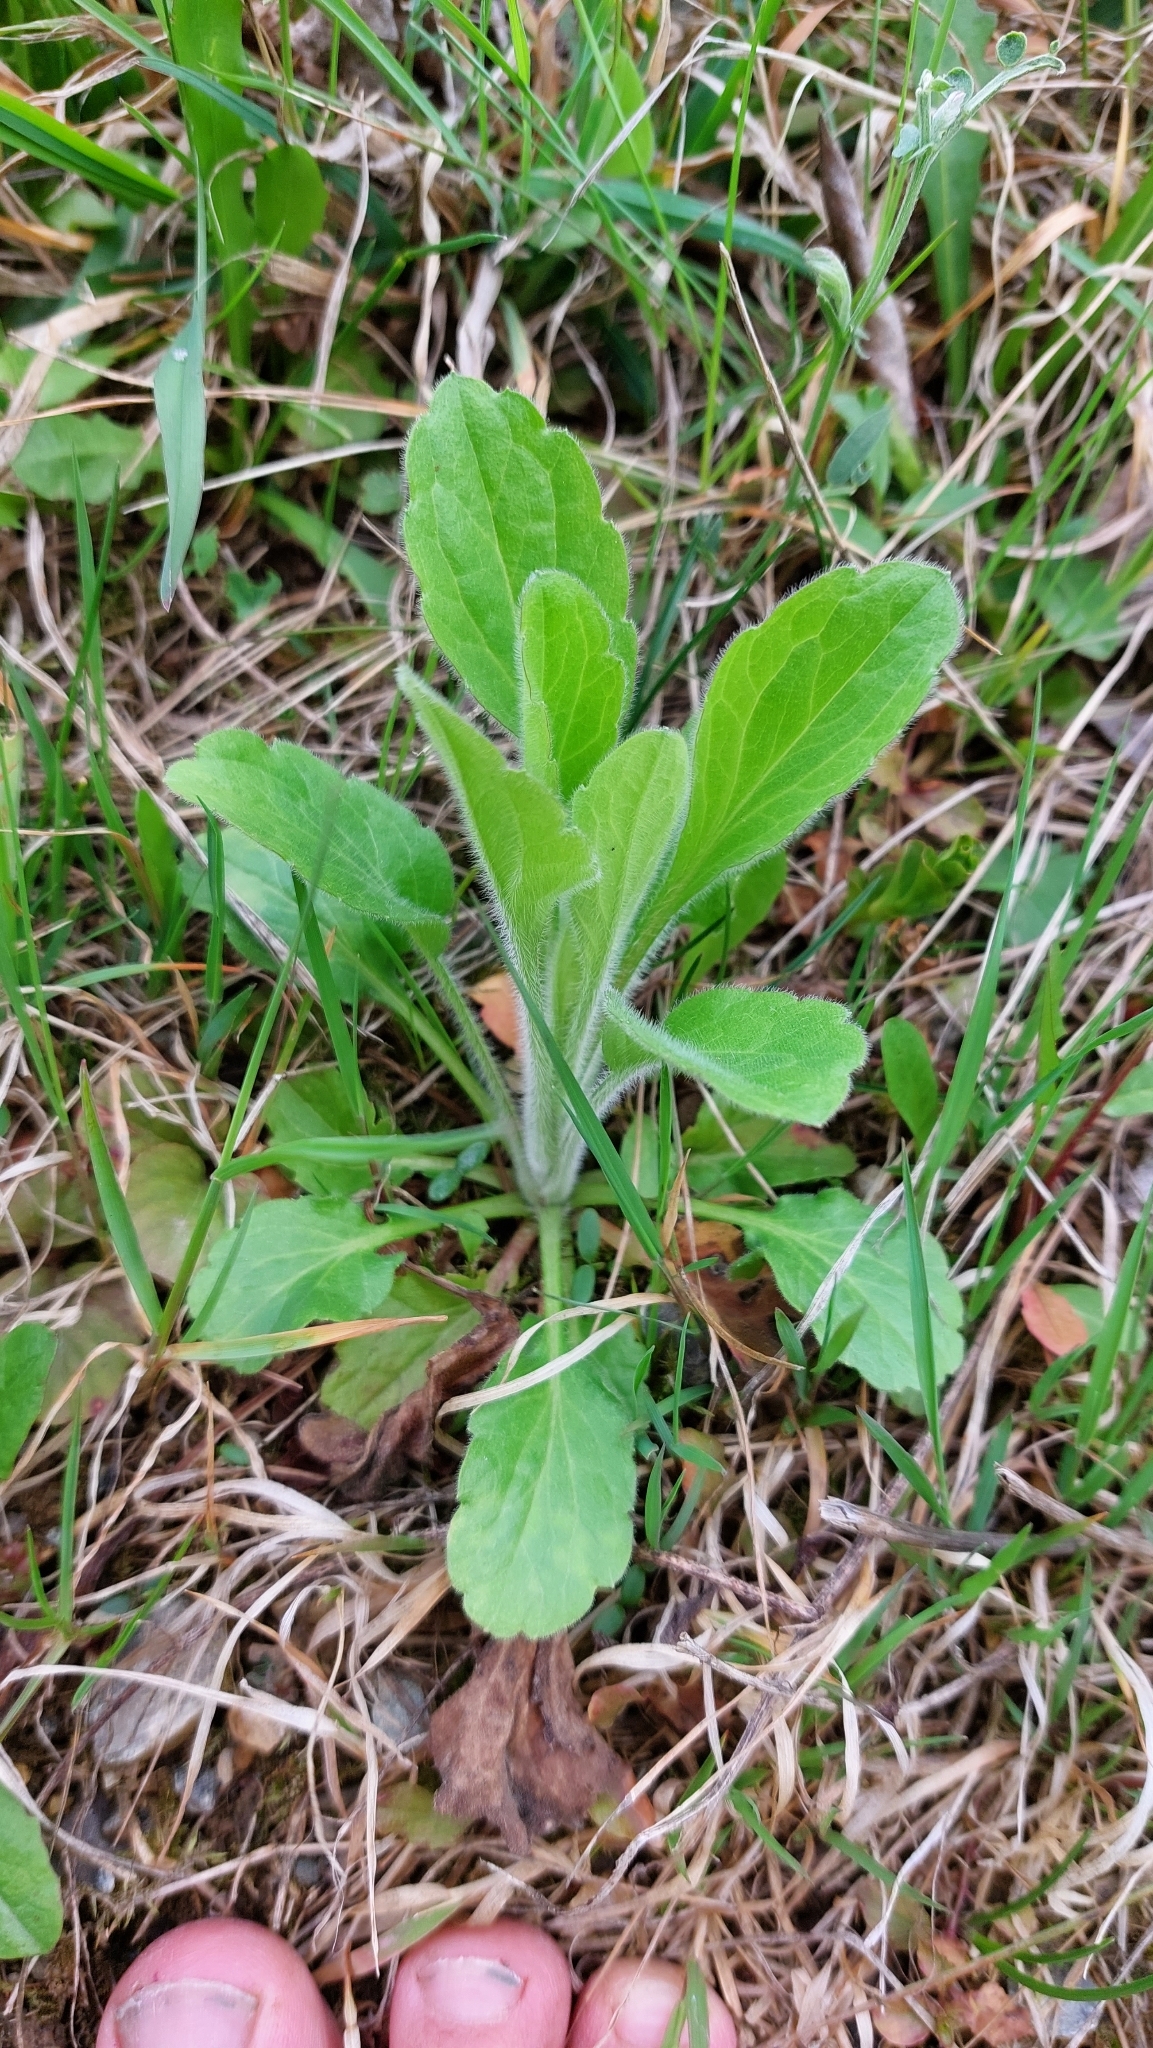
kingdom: Plantae
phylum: Tracheophyta
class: Magnoliopsida
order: Asterales
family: Asteraceae
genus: Erigeron
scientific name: Erigeron annuus
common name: Tall fleabane
